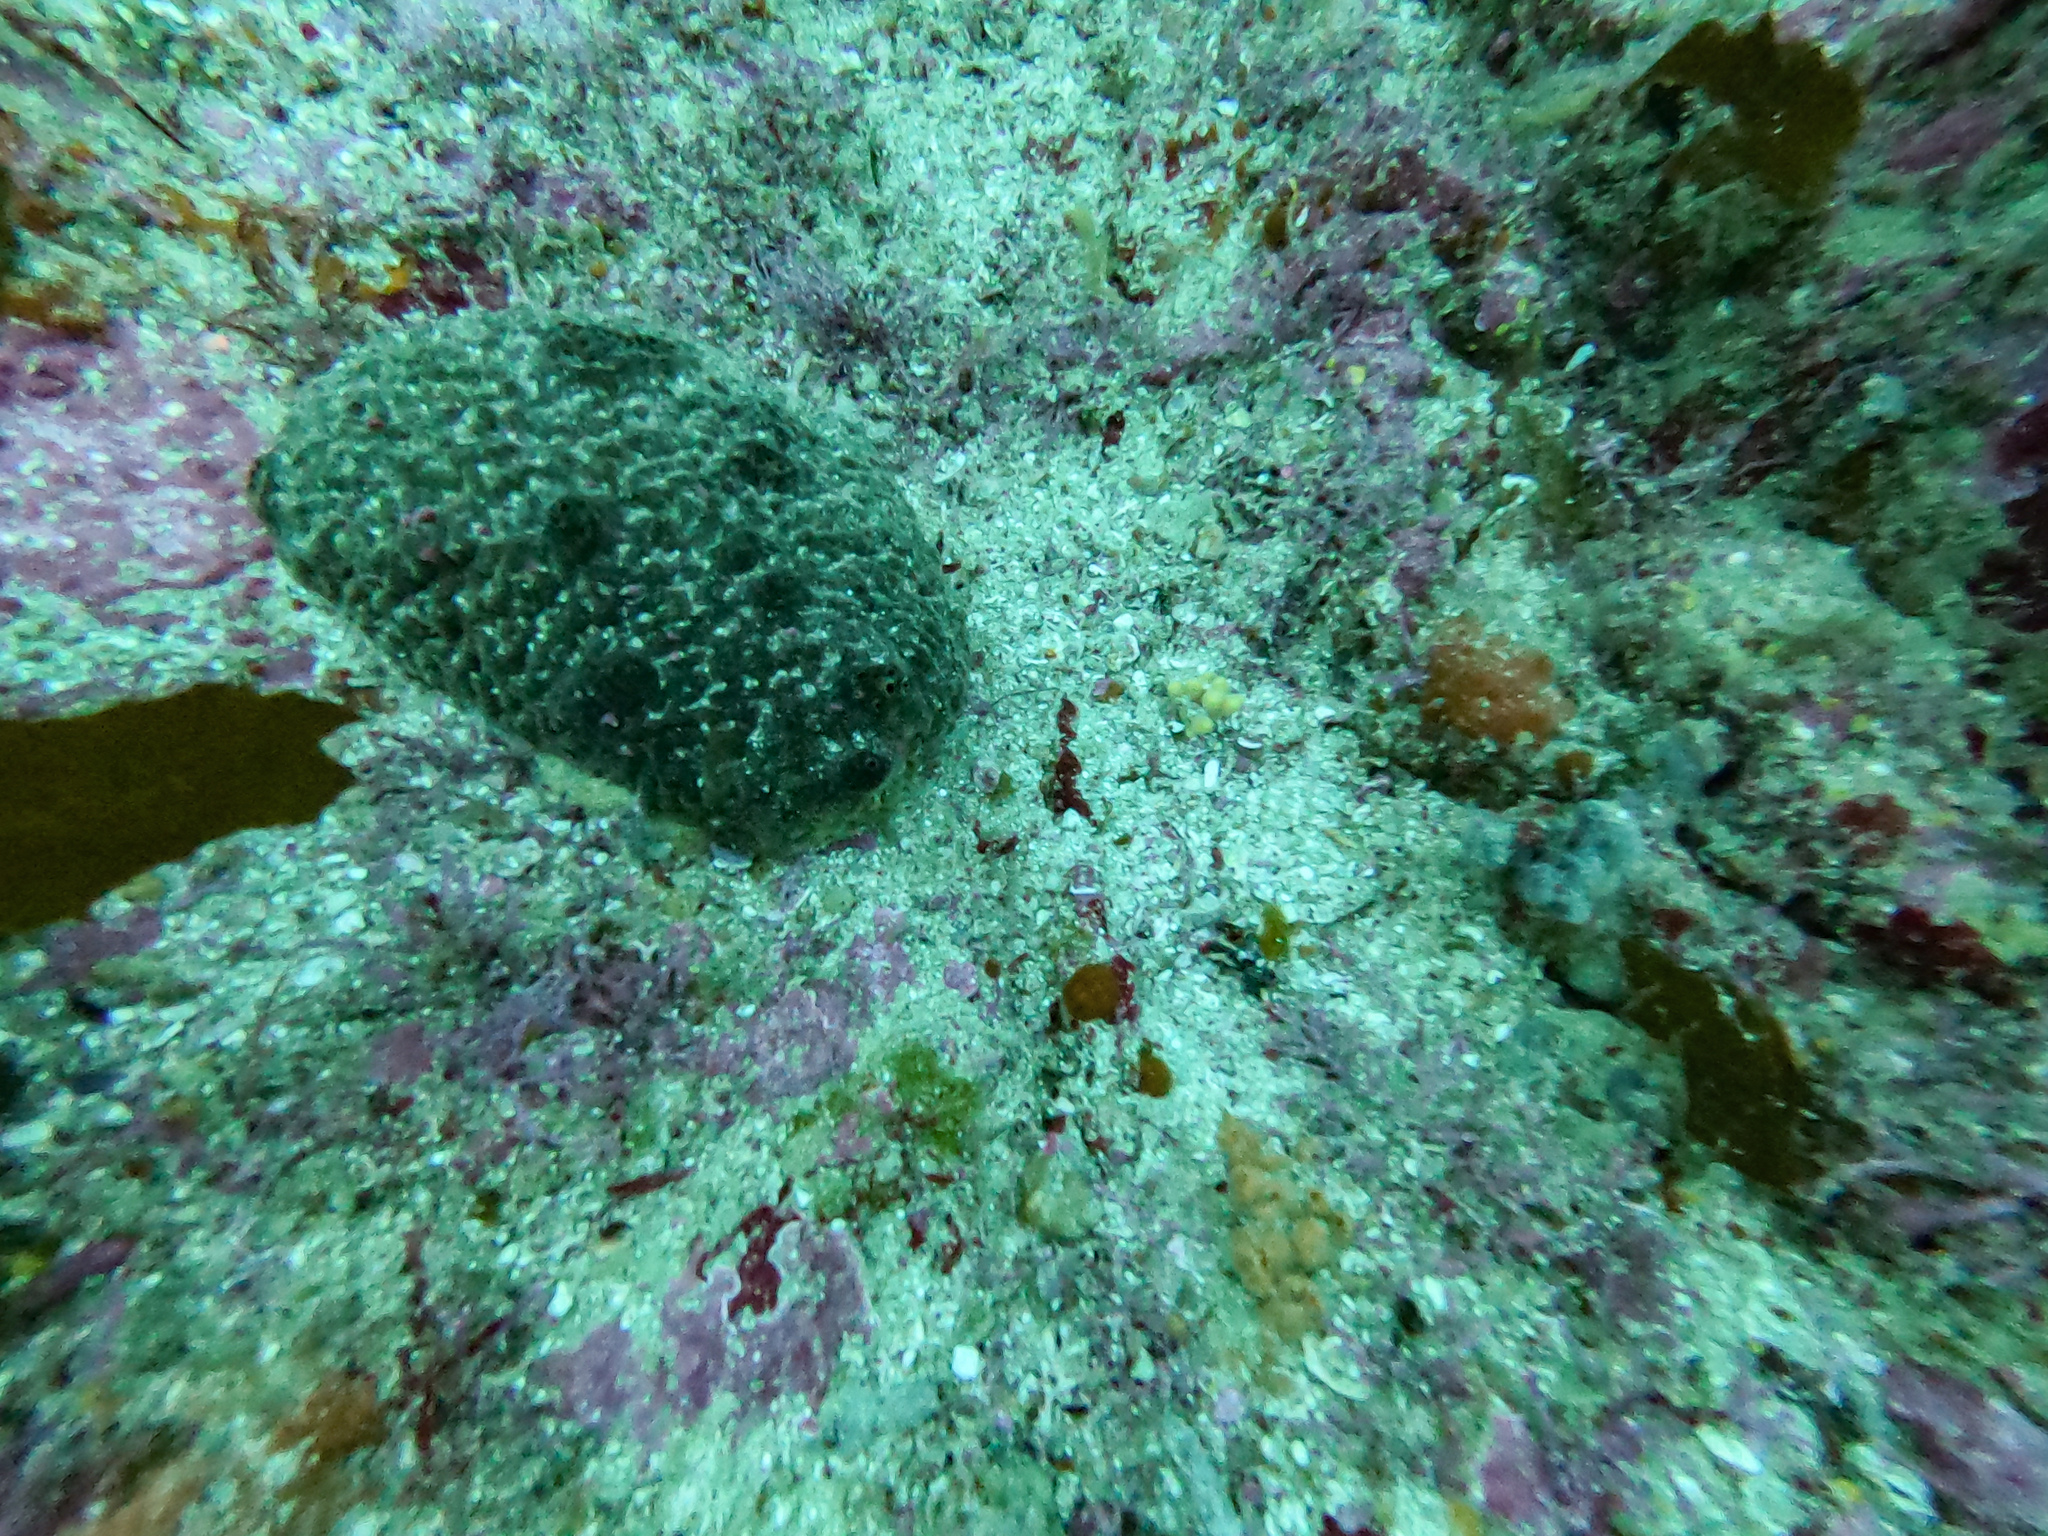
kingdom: Animalia
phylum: Porifera
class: Demospongiae
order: Polymastiida
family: Polymastiidae
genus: Polymastia
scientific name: Polymastia massalis
